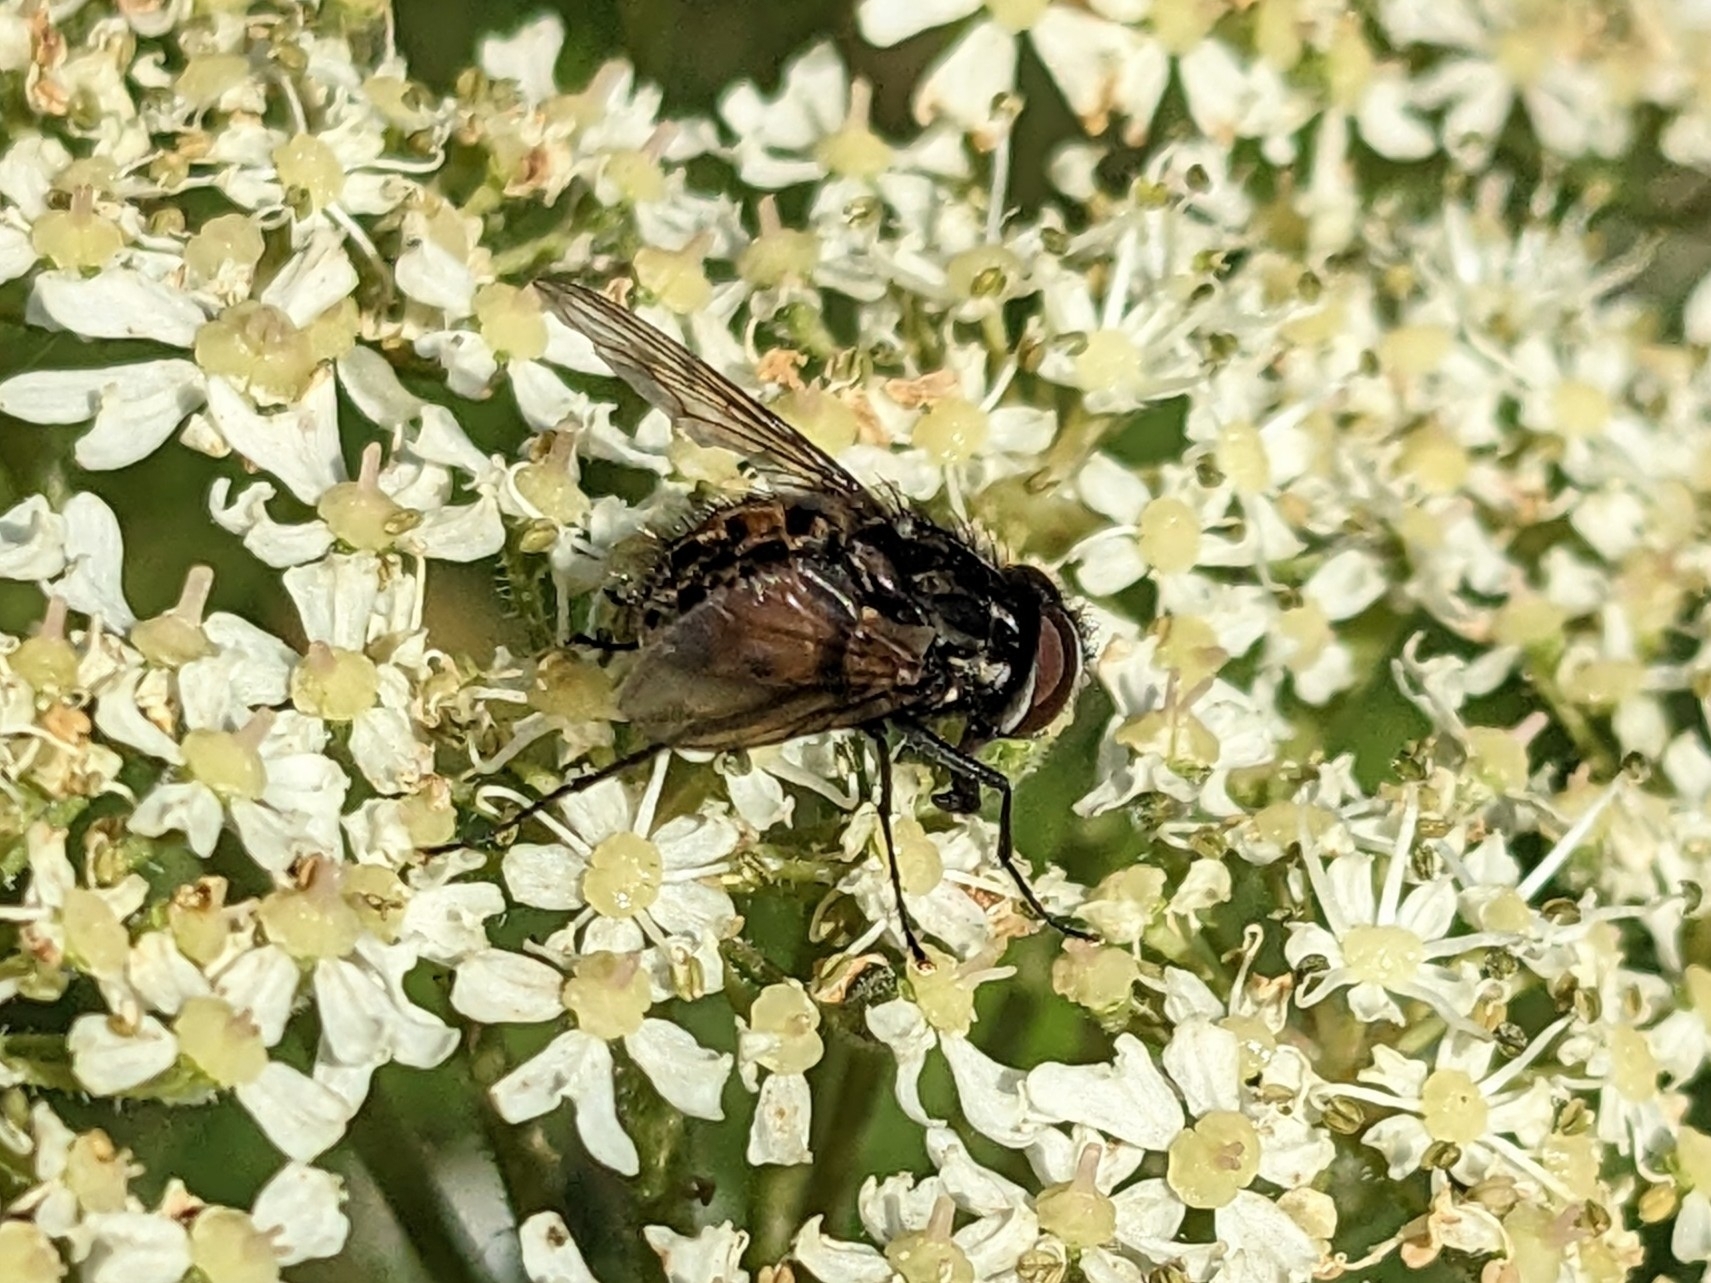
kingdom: Animalia
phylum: Arthropoda
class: Insecta
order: Diptera
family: Muscidae
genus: Graphomya
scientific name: Graphomya maculata
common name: Muscid fly
